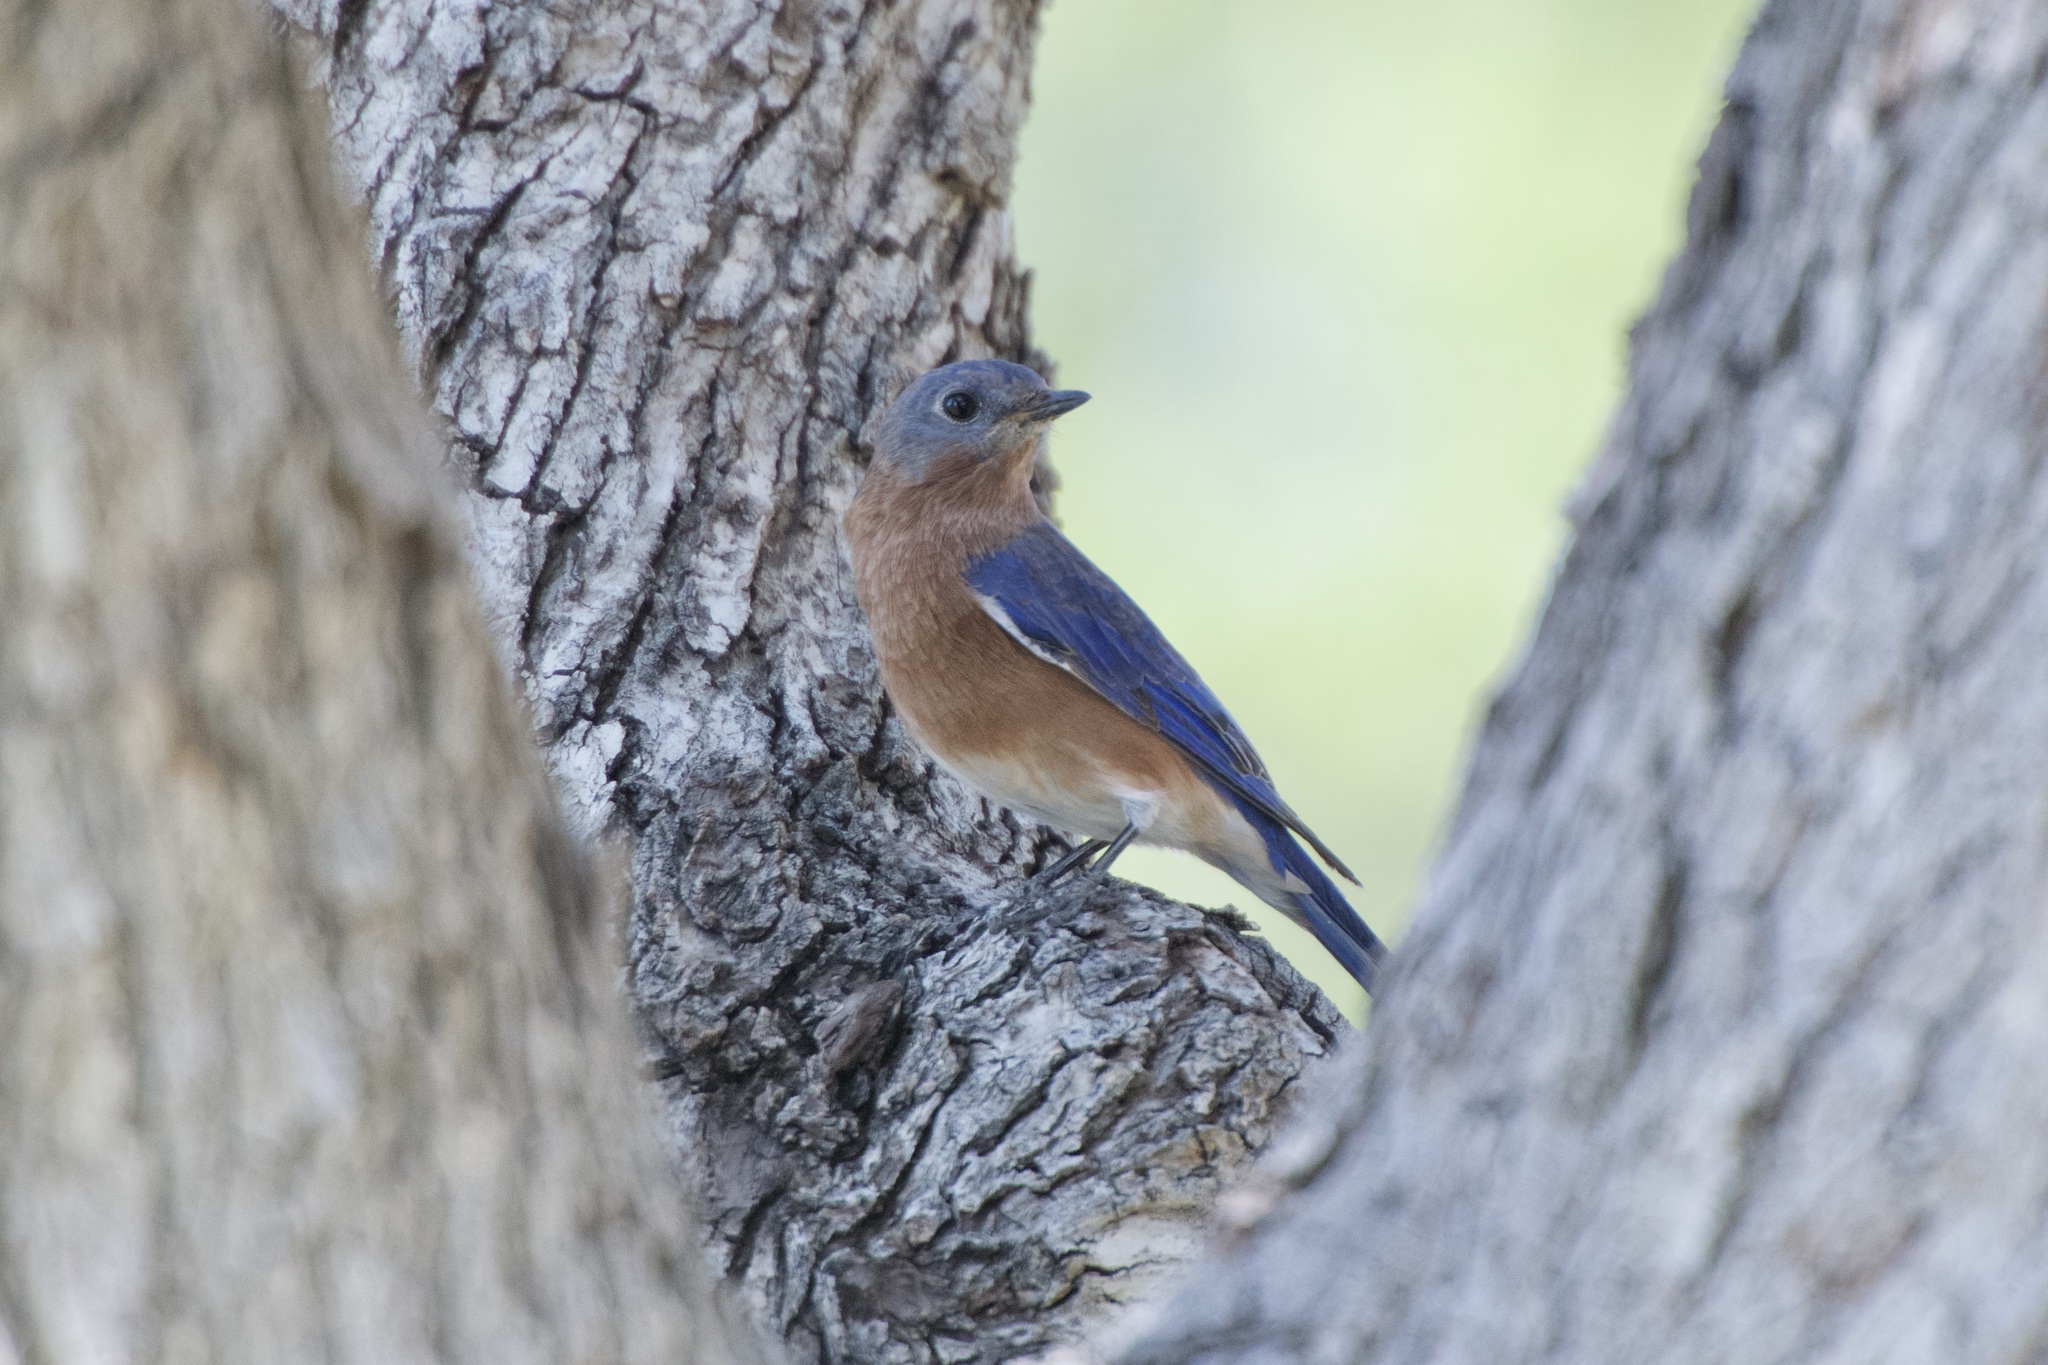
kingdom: Animalia
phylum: Chordata
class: Aves
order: Passeriformes
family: Turdidae
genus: Sialia
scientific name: Sialia sialis
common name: Eastern bluebird
